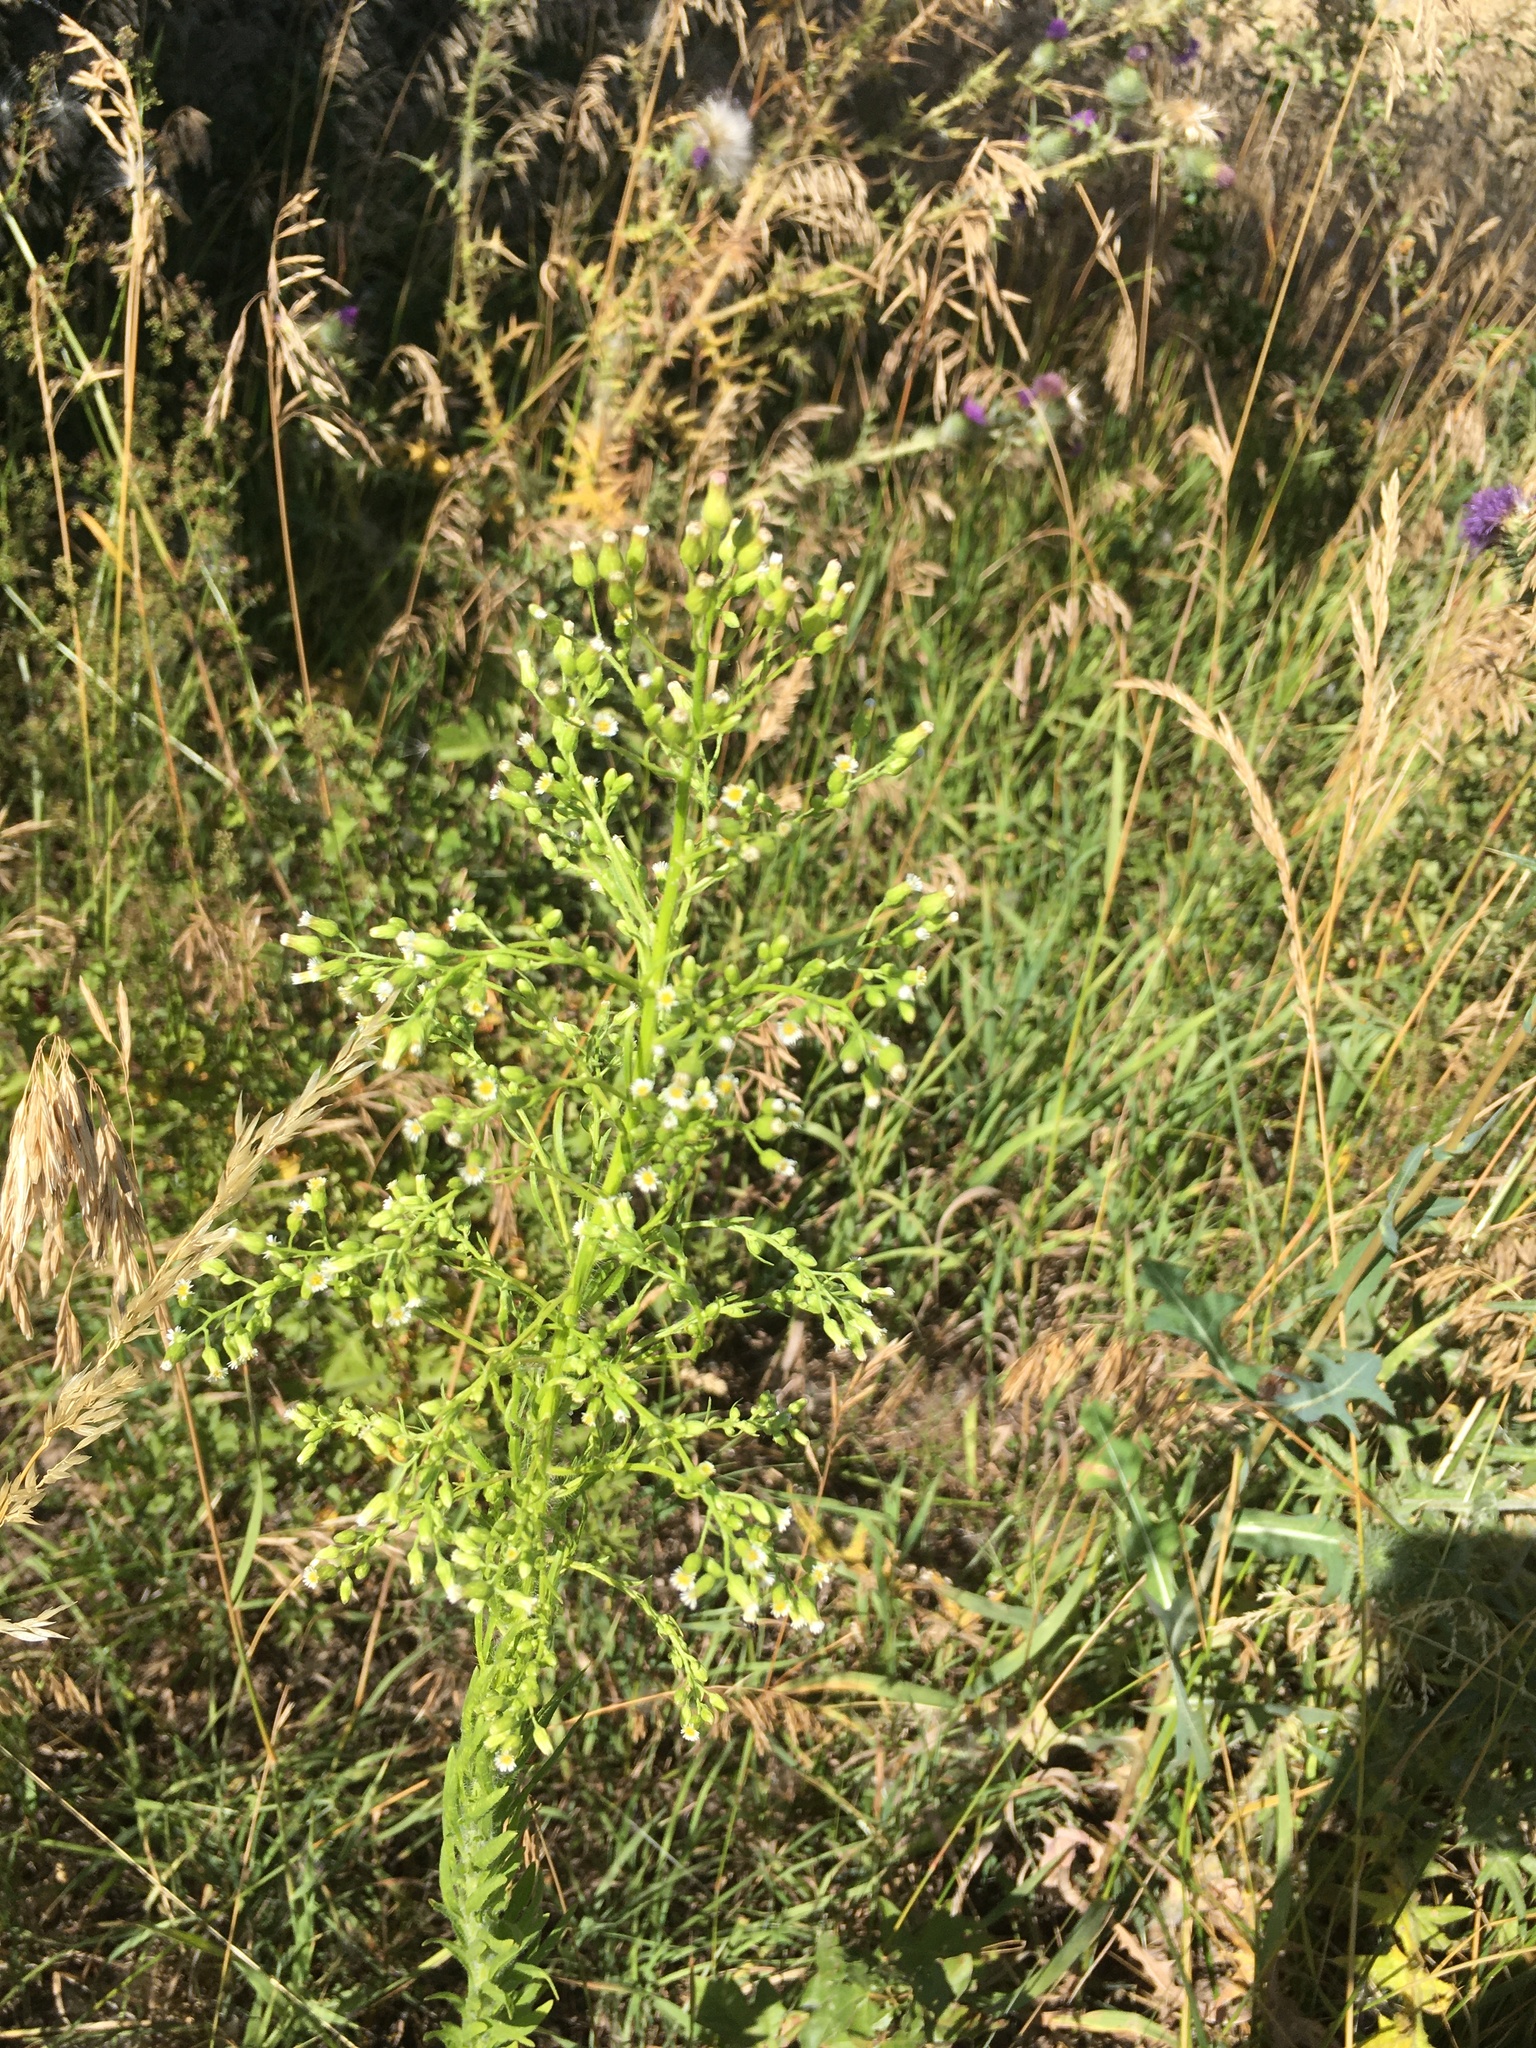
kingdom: Plantae
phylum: Tracheophyta
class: Magnoliopsida
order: Asterales
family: Asteraceae
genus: Erigeron
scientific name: Erigeron canadensis
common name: Canadian fleabane
